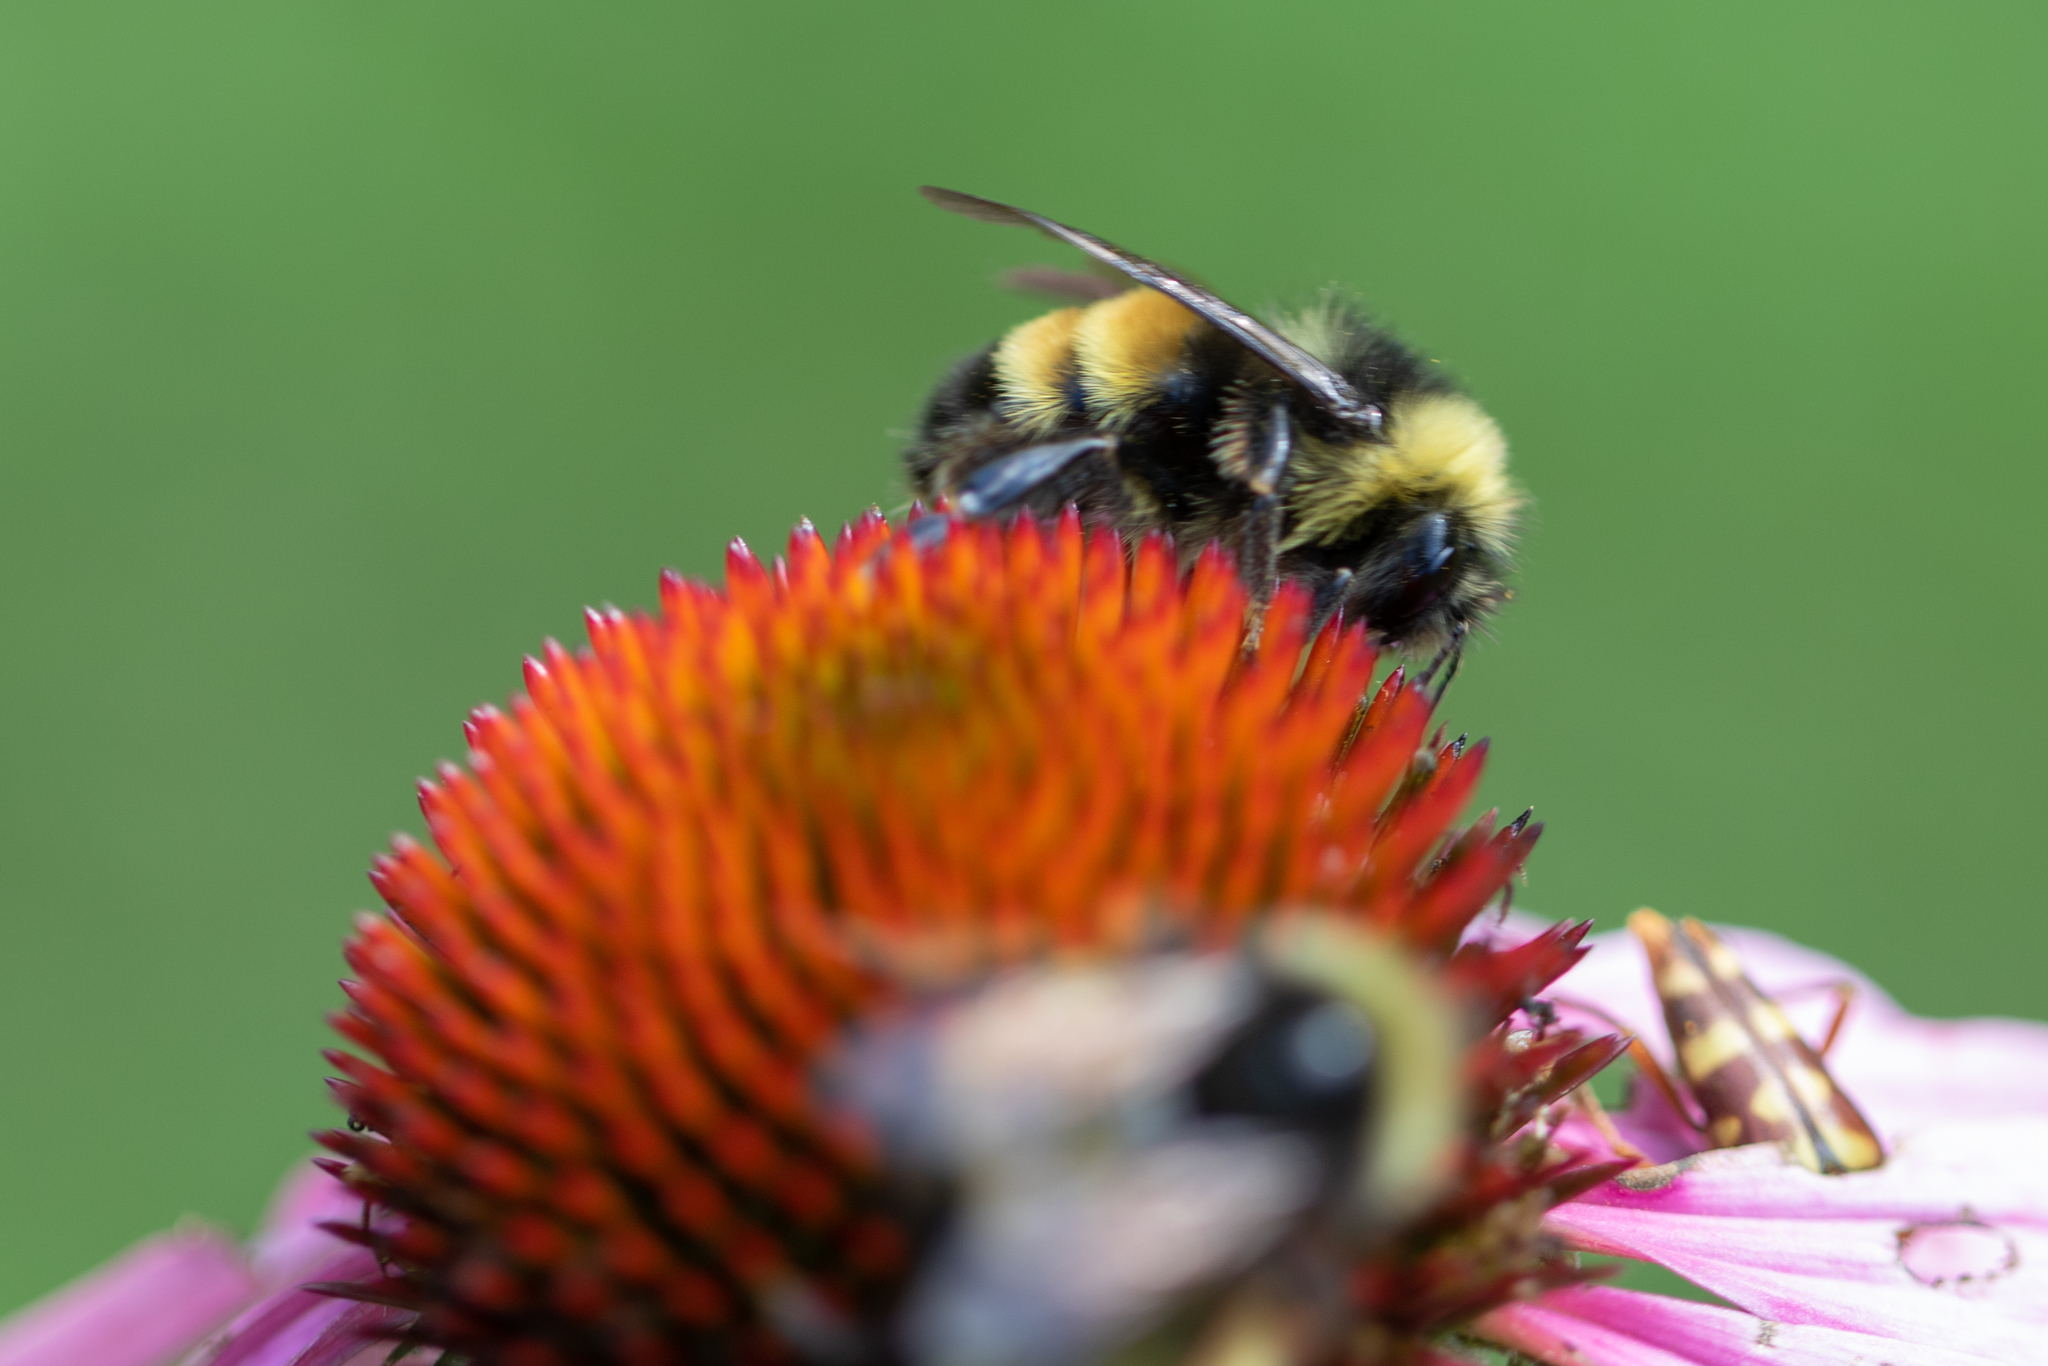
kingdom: Animalia
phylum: Arthropoda
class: Insecta
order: Hymenoptera
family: Apidae
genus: Bombus
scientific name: Bombus terricola
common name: Yellow-banded bumble bee
